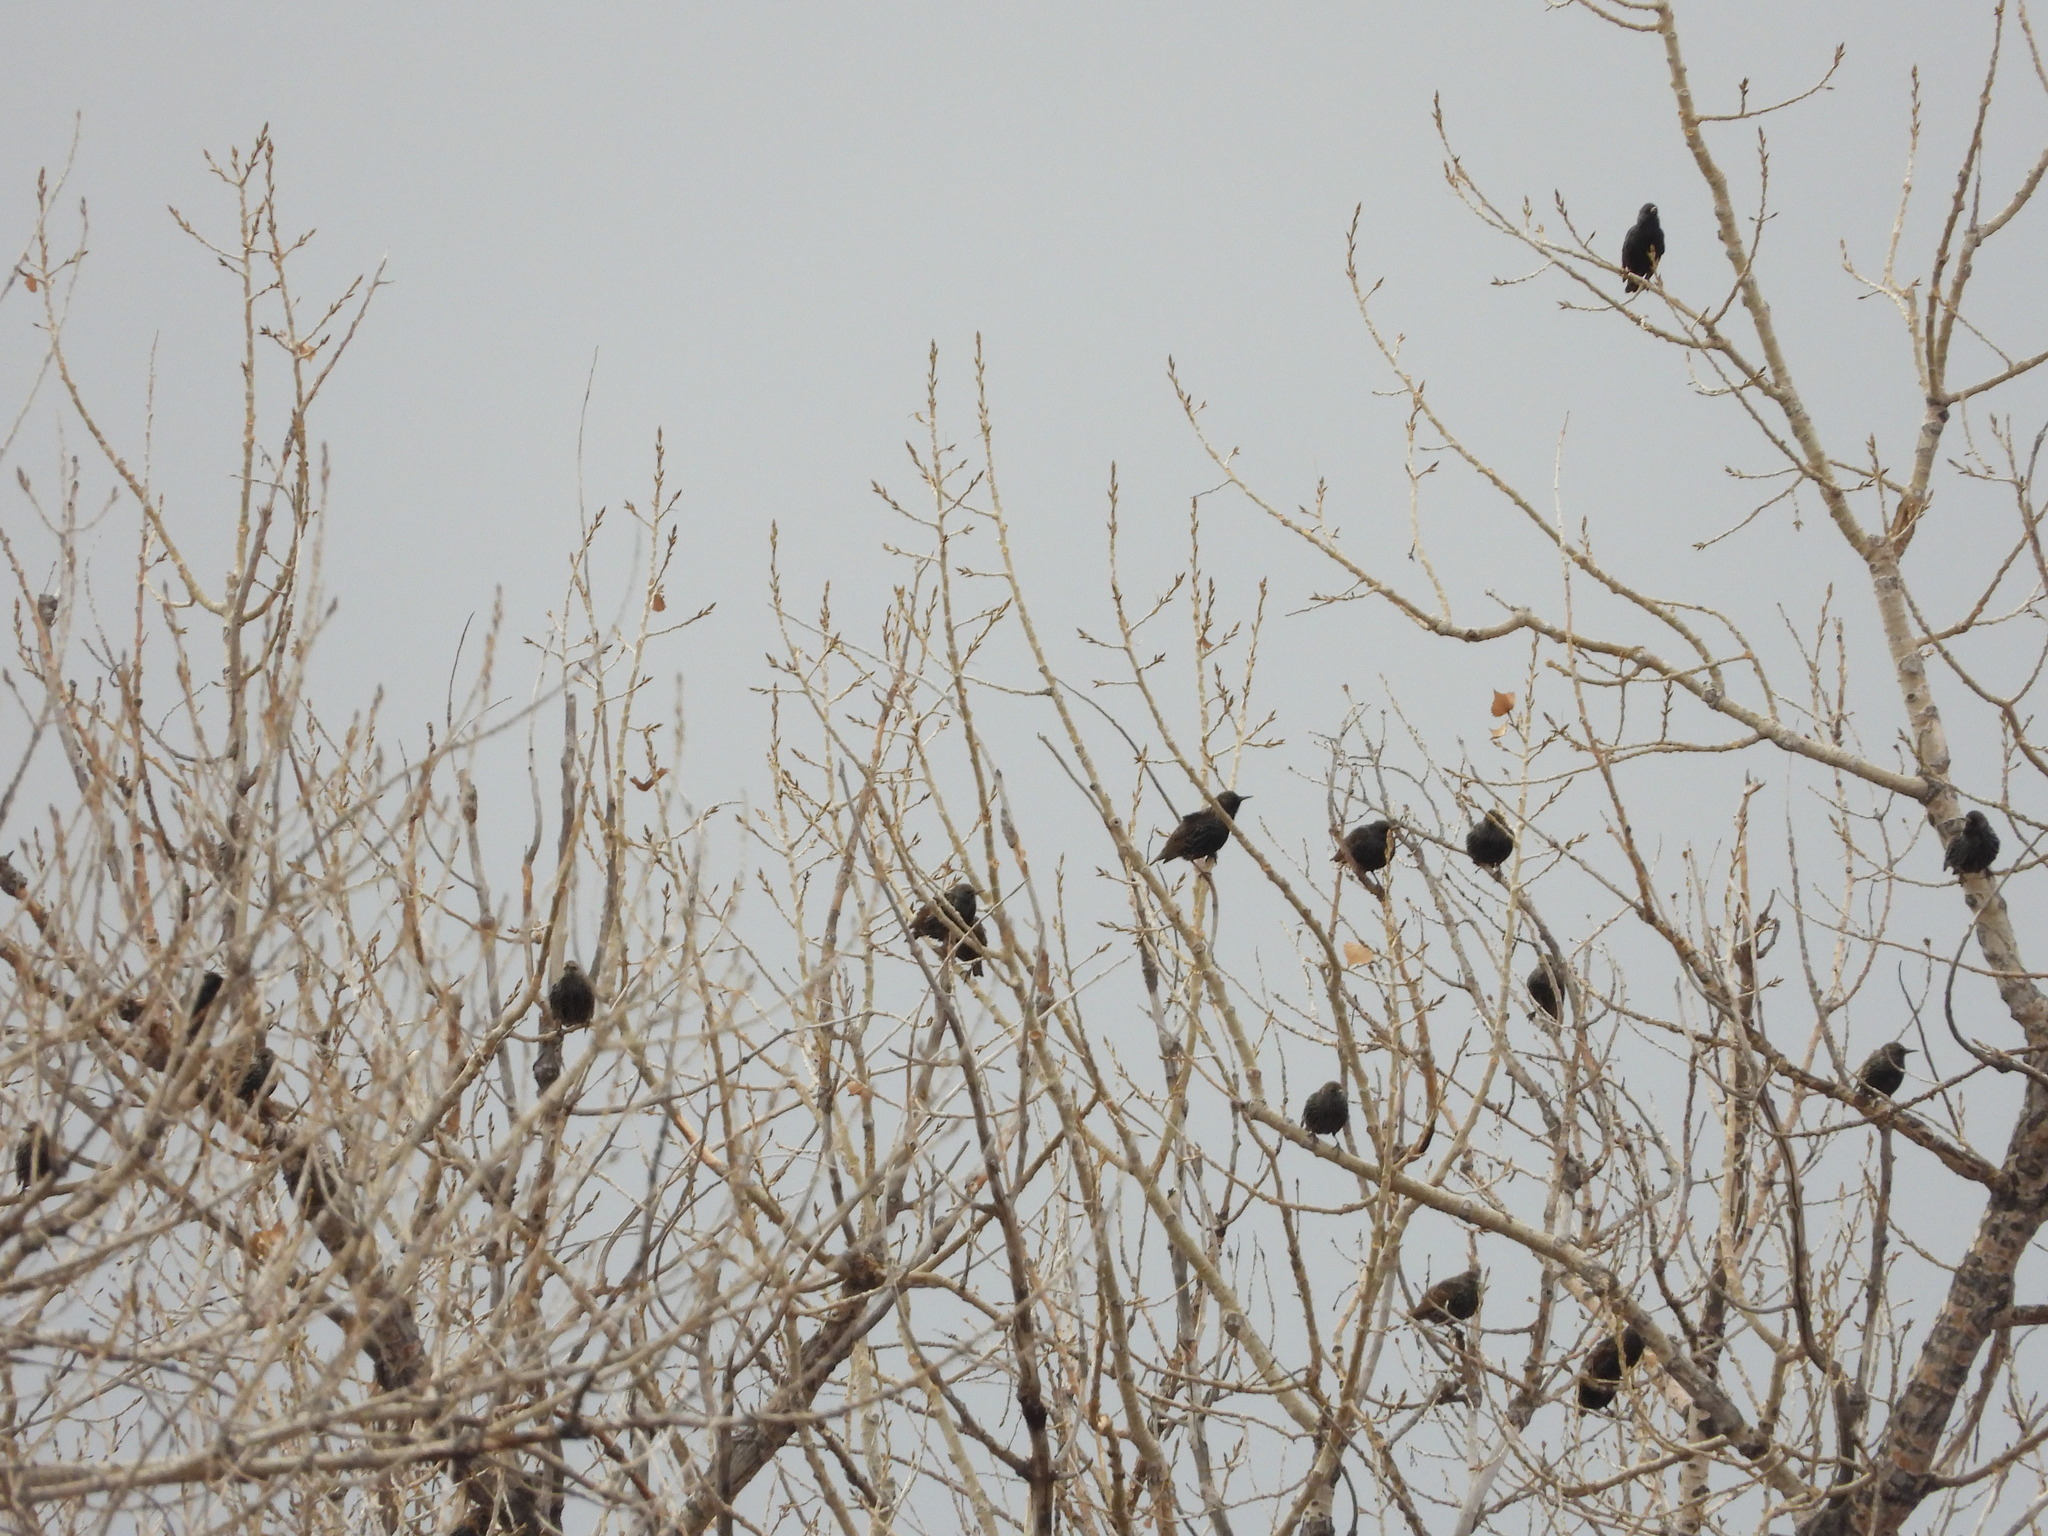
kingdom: Animalia
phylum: Chordata
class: Aves
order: Passeriformes
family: Sturnidae
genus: Sturnus
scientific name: Sturnus vulgaris
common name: Common starling
